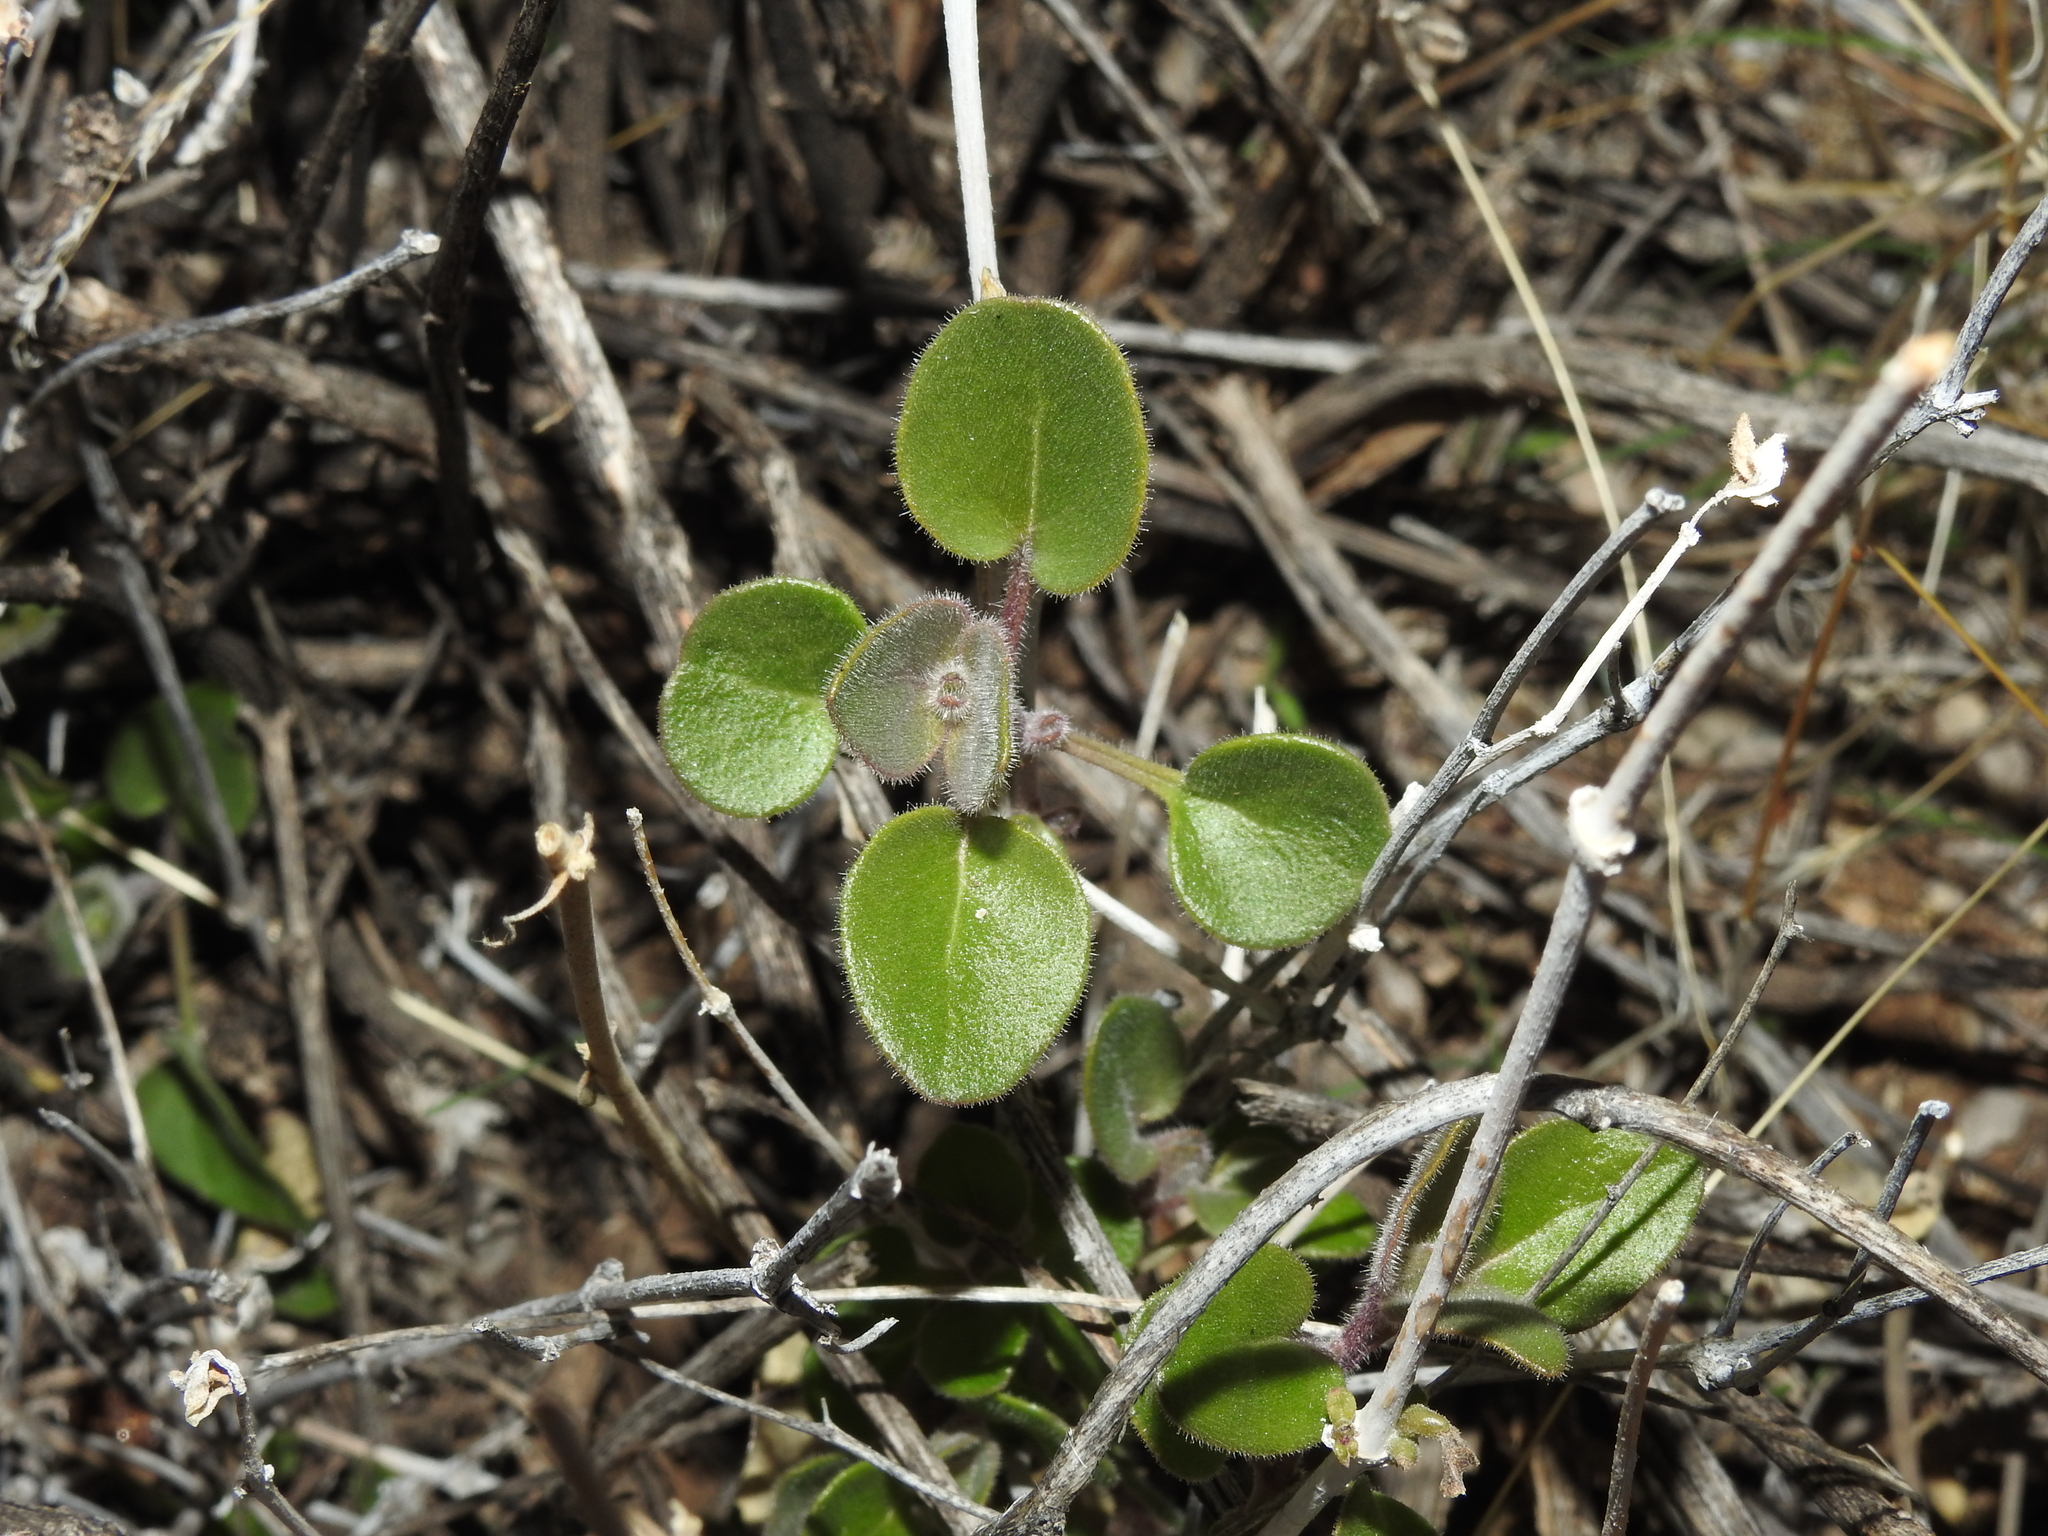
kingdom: Plantae
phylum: Tracheophyta
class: Magnoliopsida
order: Caryophyllales
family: Nyctaginaceae
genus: Mirabilis
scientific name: Mirabilis laevis
